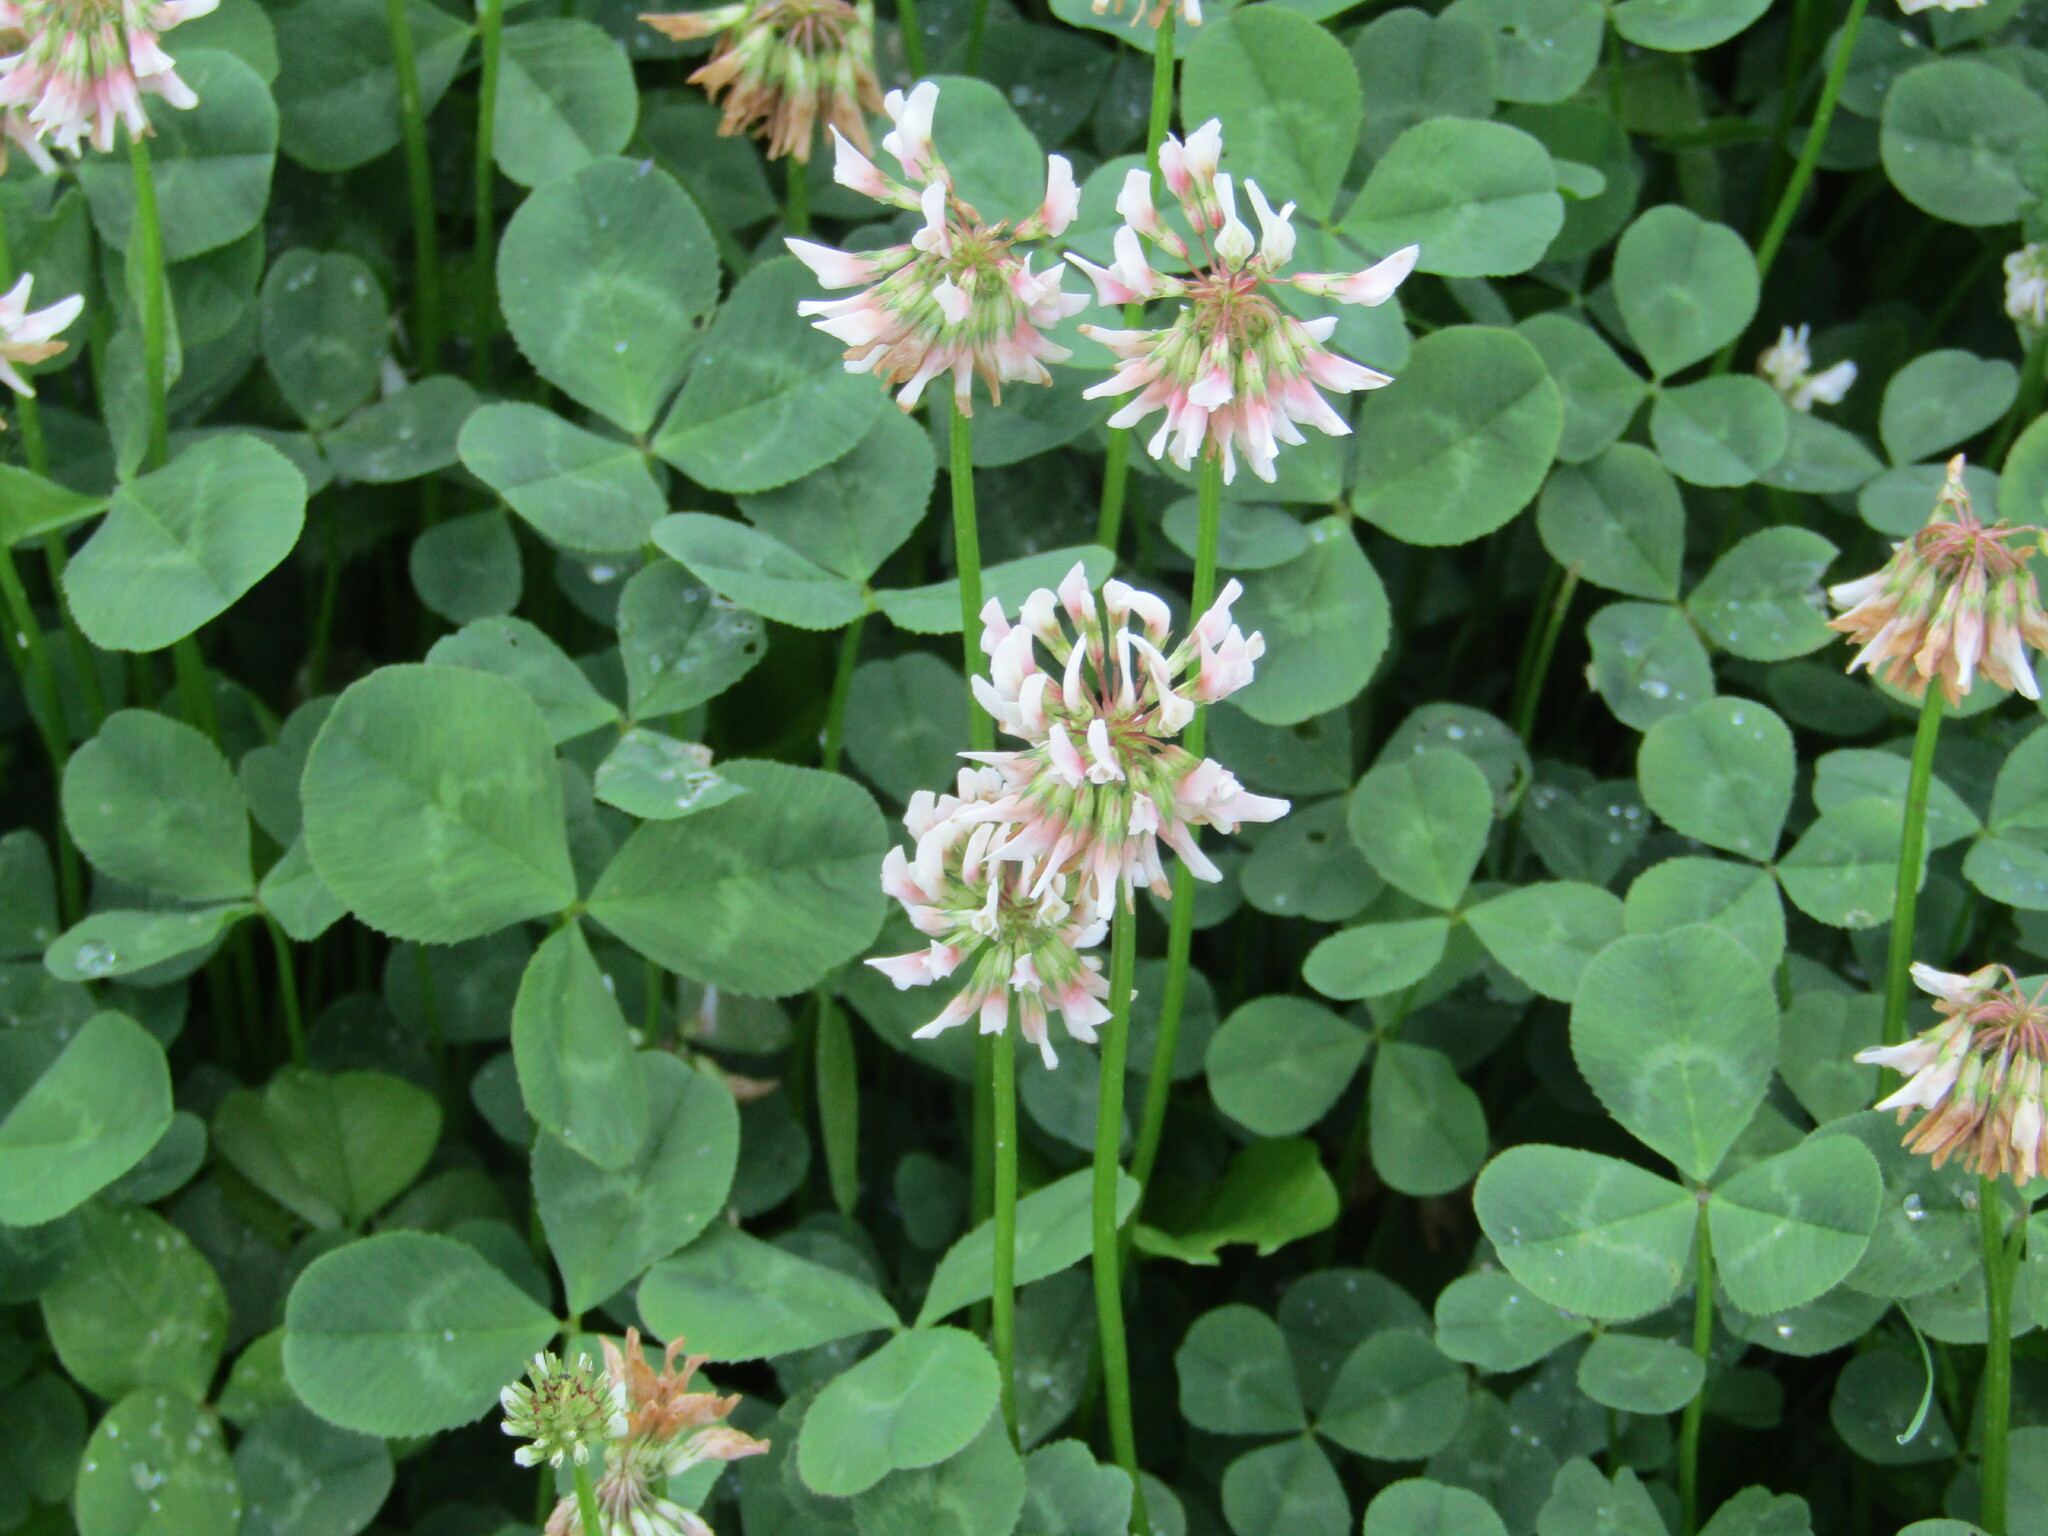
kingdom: Plantae
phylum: Tracheophyta
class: Magnoliopsida
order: Fabales
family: Fabaceae
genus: Trifolium
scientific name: Trifolium repens
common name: White clover
